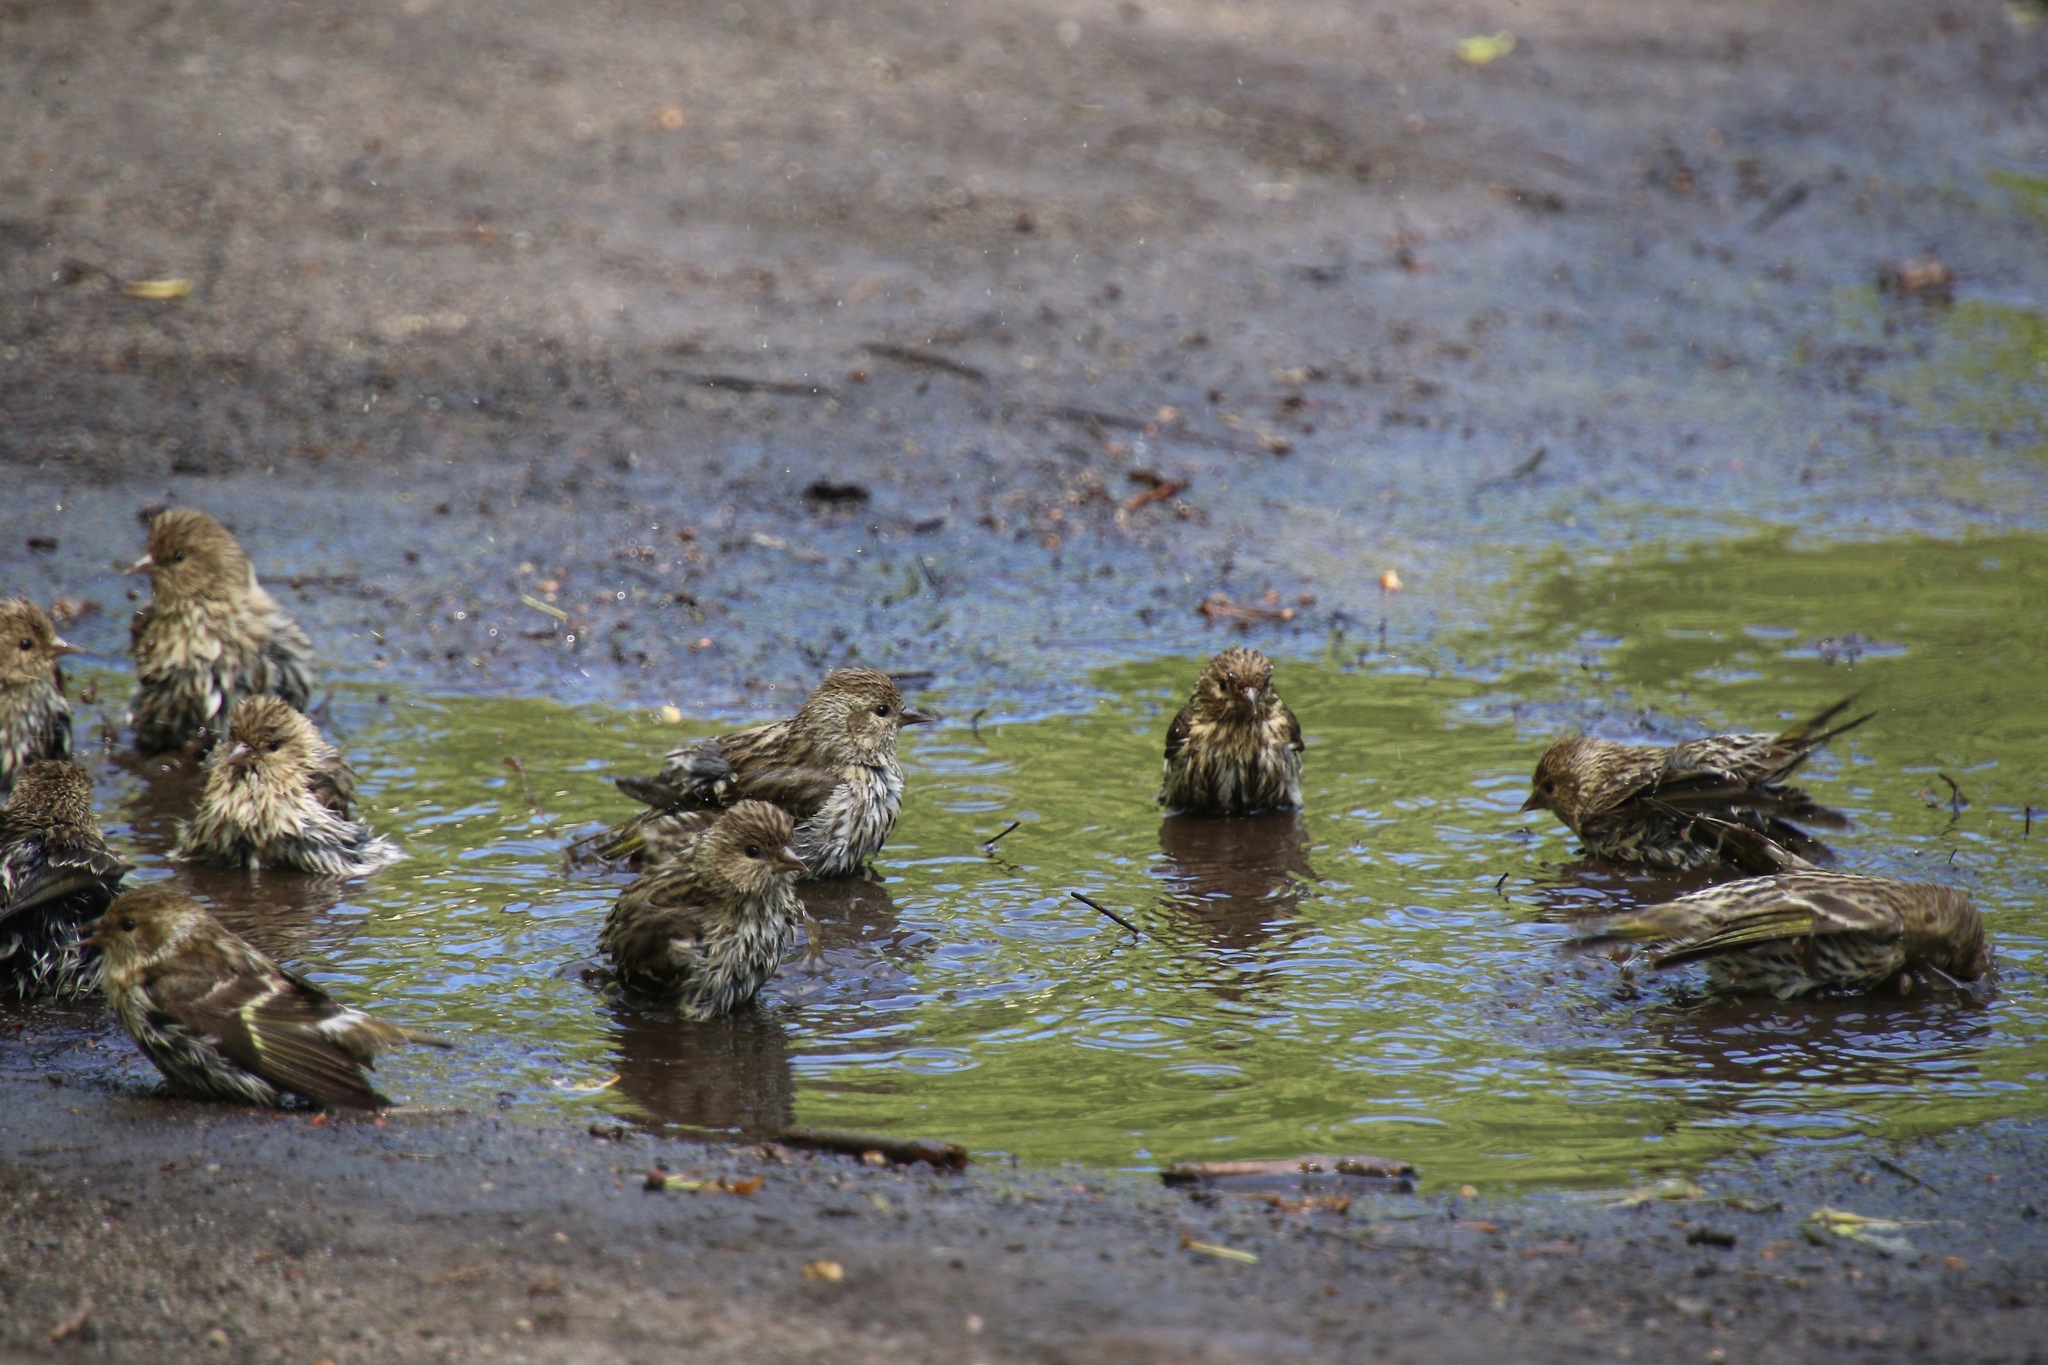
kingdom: Animalia
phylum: Chordata
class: Aves
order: Passeriformes
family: Fringillidae
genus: Spinus
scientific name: Spinus pinus
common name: Pine siskin
